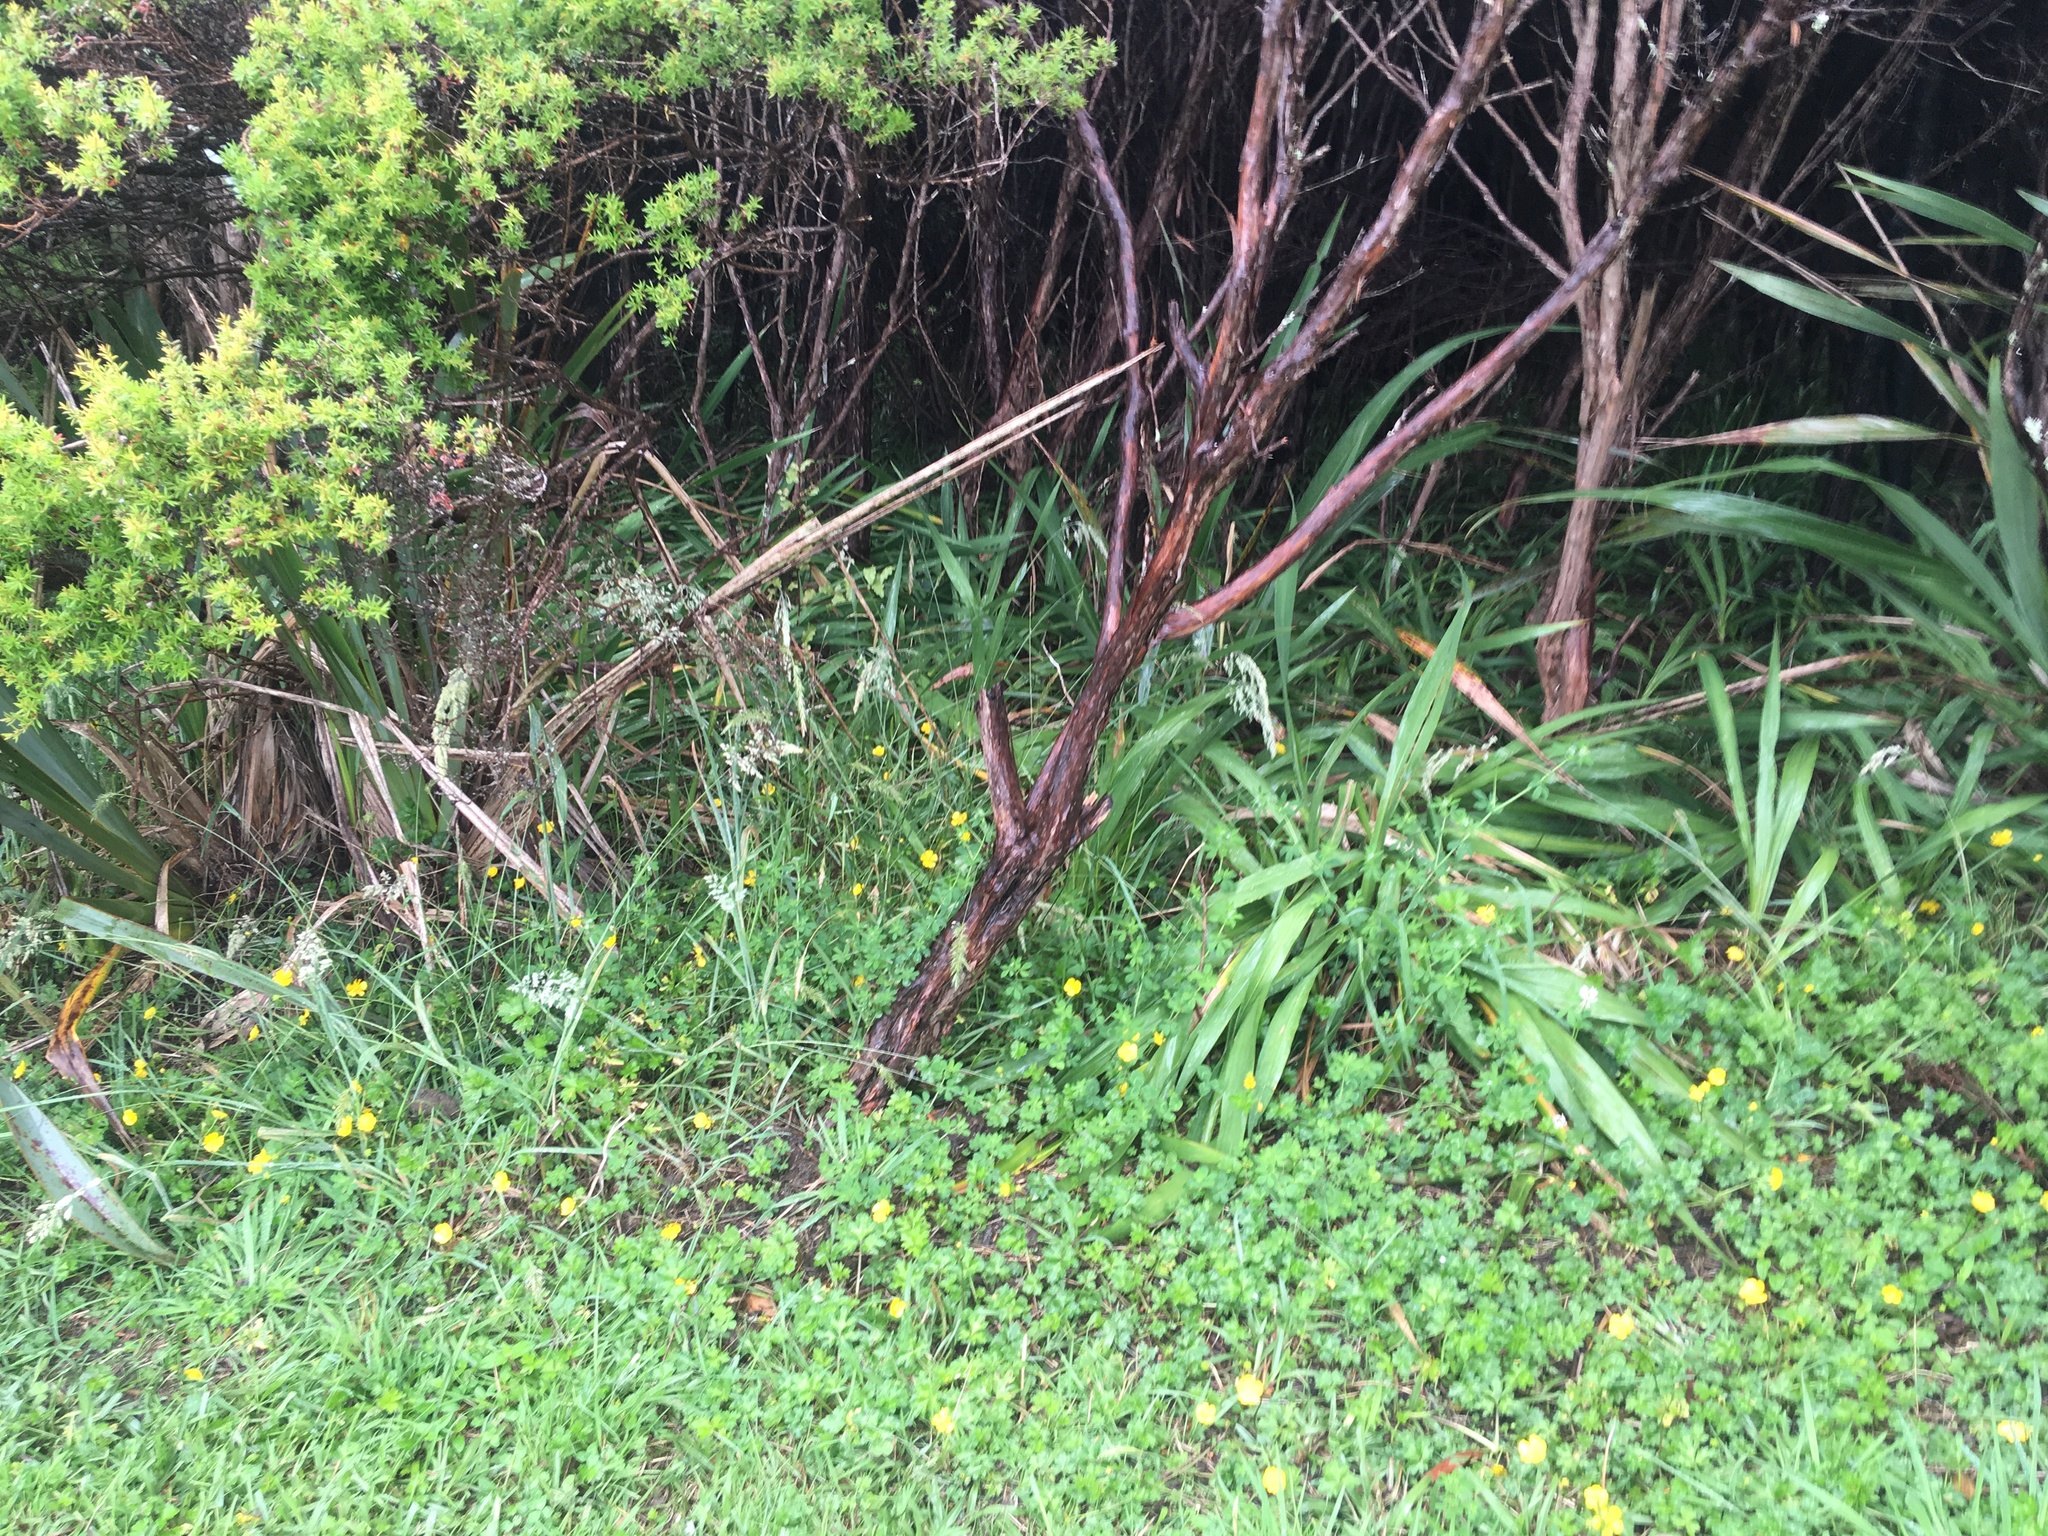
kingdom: Plantae
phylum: Tracheophyta
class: Magnoliopsida
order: Myrtales
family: Myrtaceae
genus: Leptospermum
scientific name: Leptospermum scoparium
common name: Broom tea-tree
